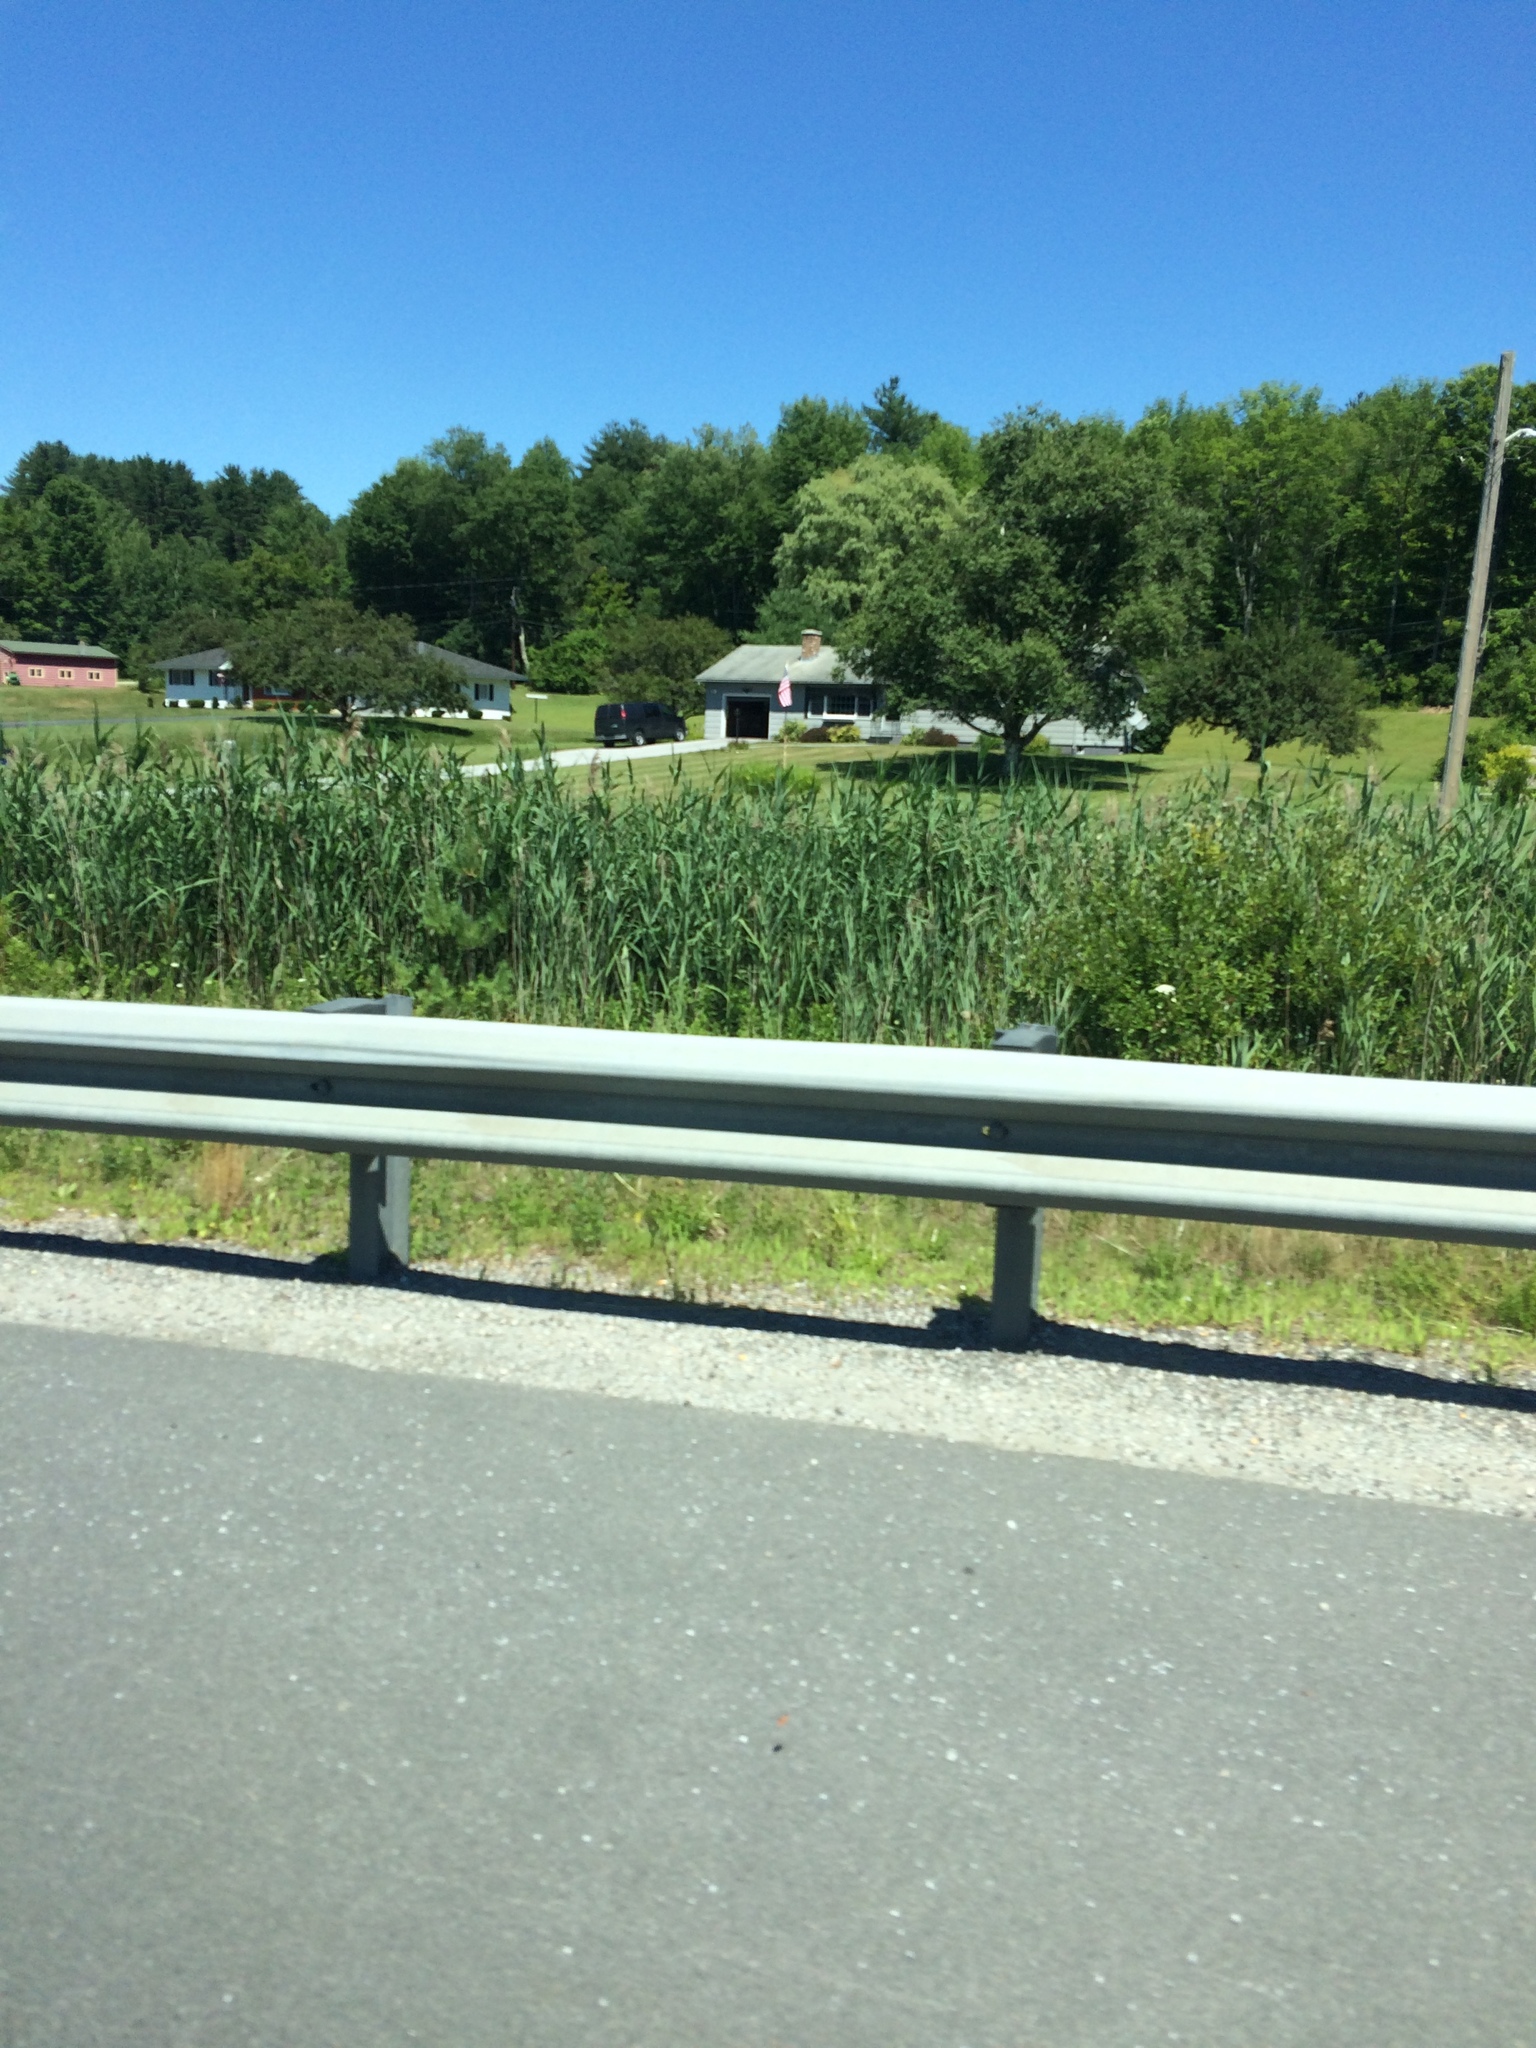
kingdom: Plantae
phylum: Tracheophyta
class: Liliopsida
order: Poales
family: Poaceae
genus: Phragmites
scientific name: Phragmites australis
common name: Common reed
